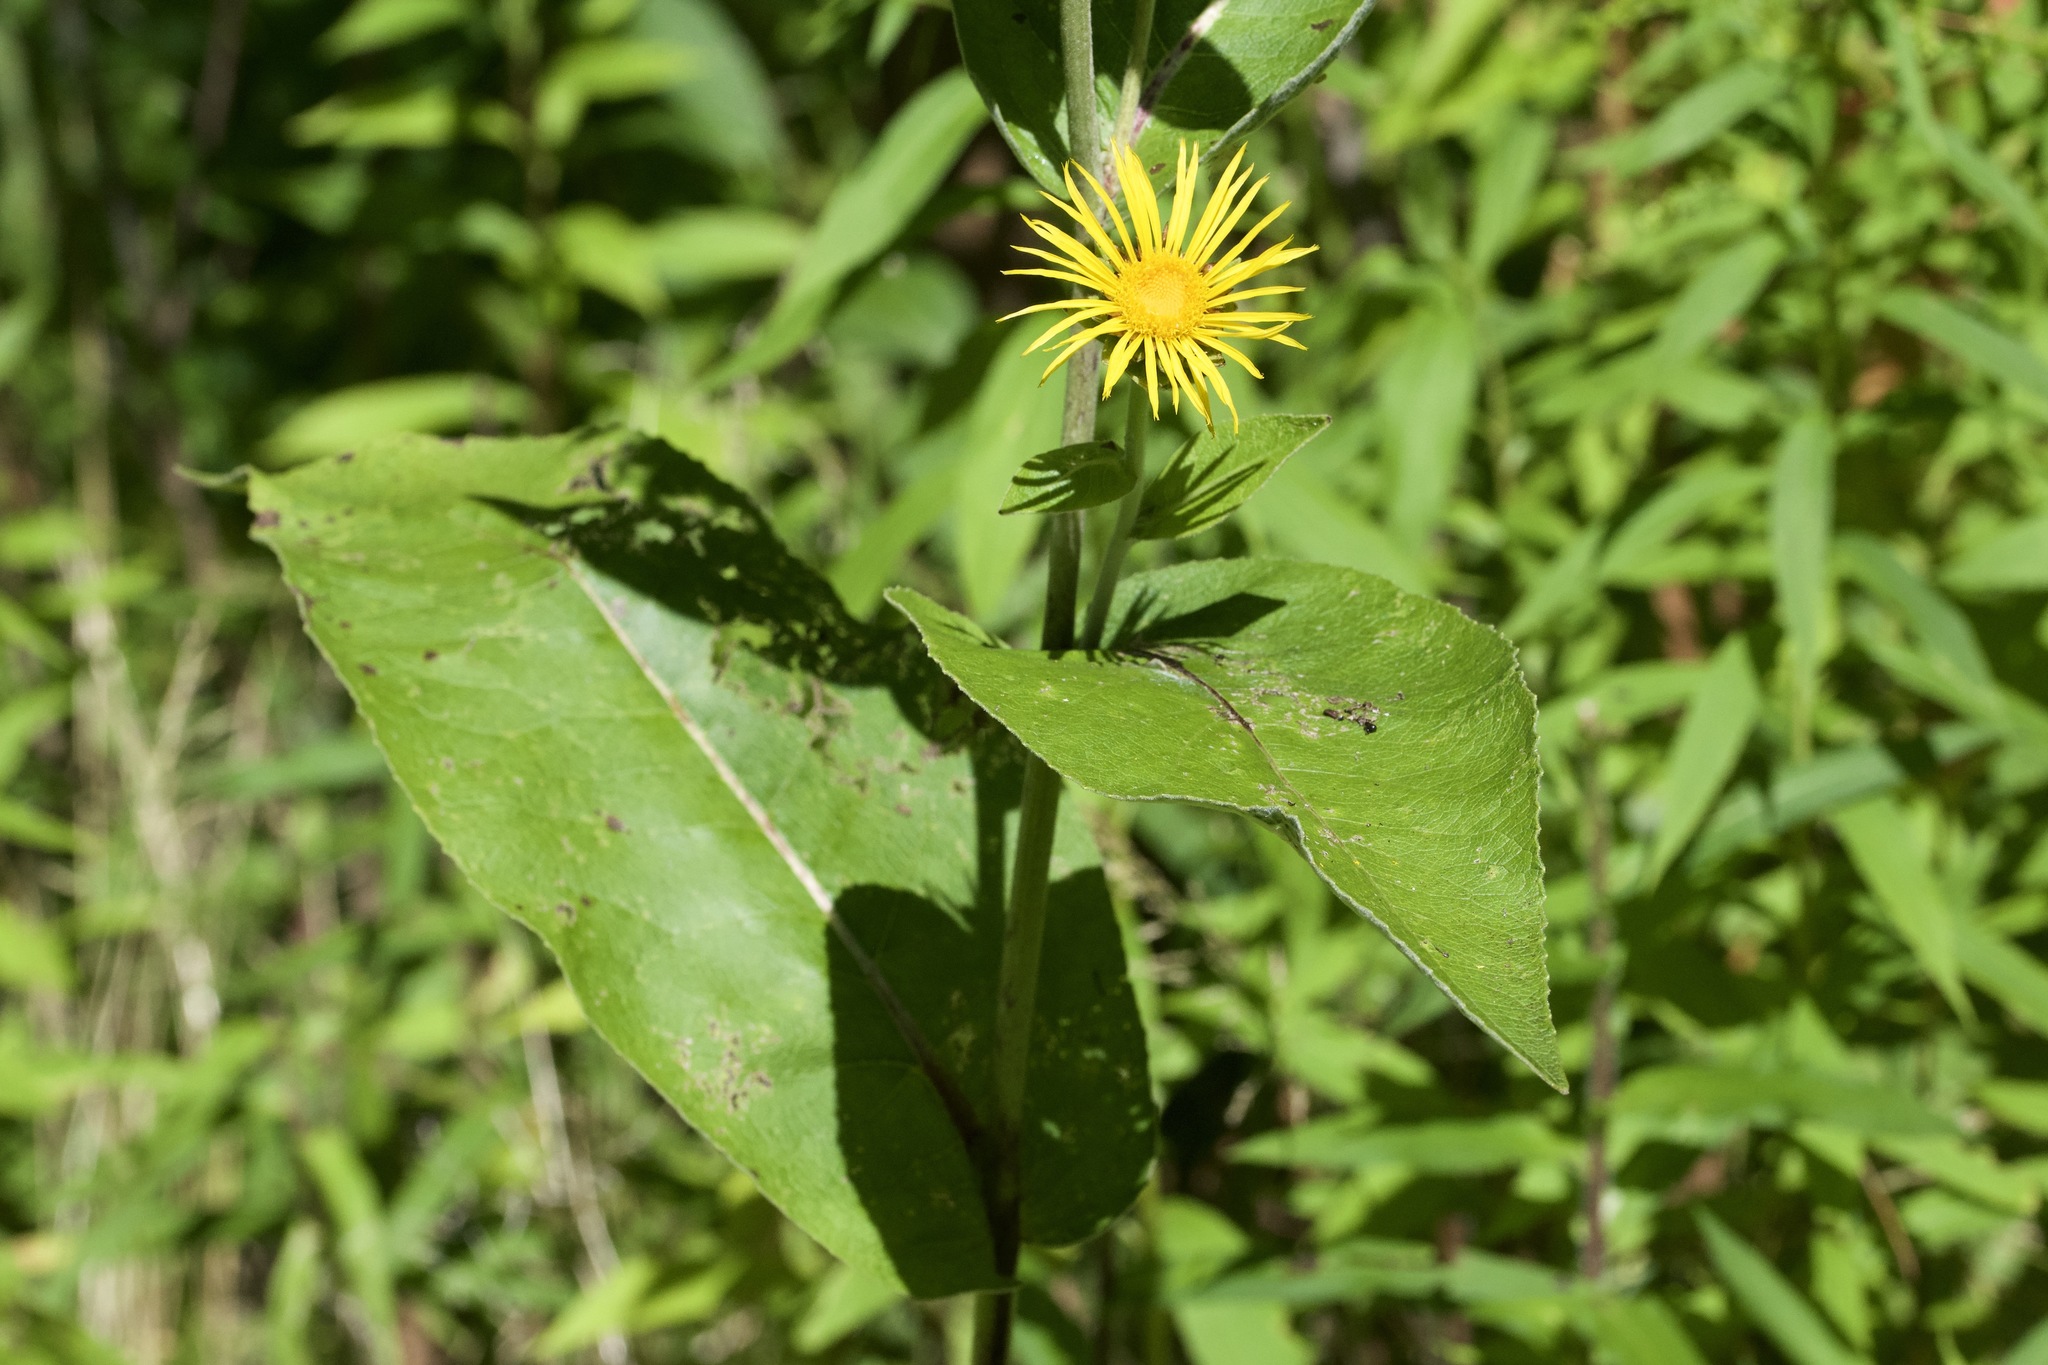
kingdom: Plantae
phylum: Tracheophyta
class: Magnoliopsida
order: Asterales
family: Asteraceae
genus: Inula
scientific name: Inula helenium
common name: Elecampane
